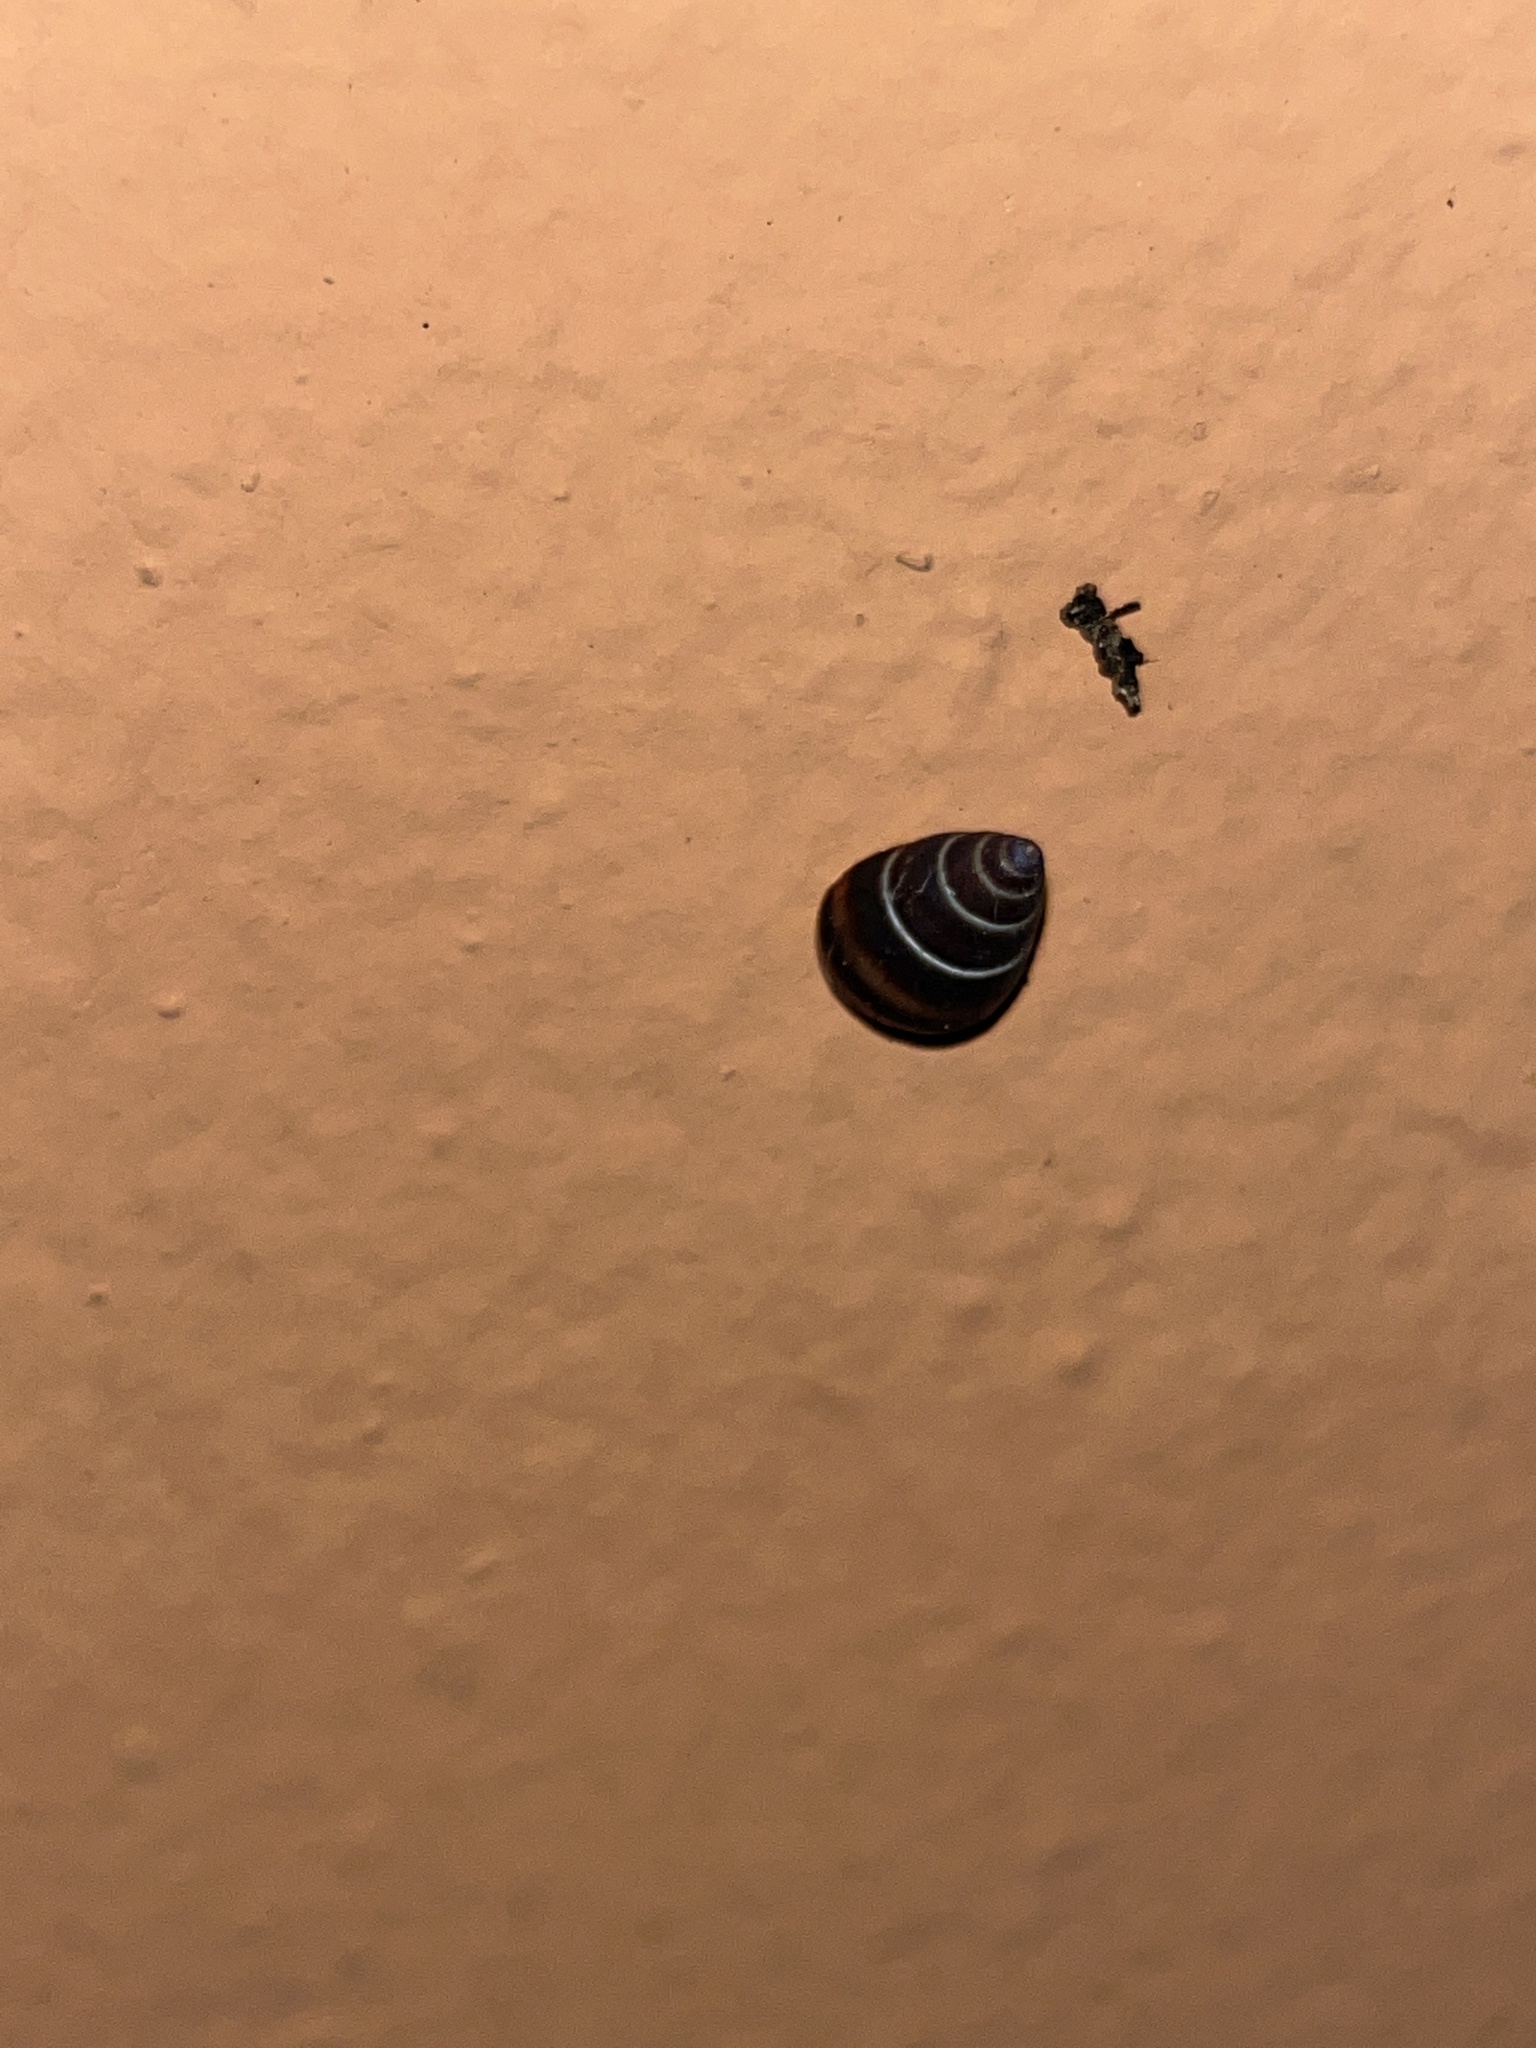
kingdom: Animalia
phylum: Mollusca
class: Gastropoda
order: Stylommatophora
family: Bulimulidae
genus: Bulimulus
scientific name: Bulimulus guadalupensis
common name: West indian bulimulus
